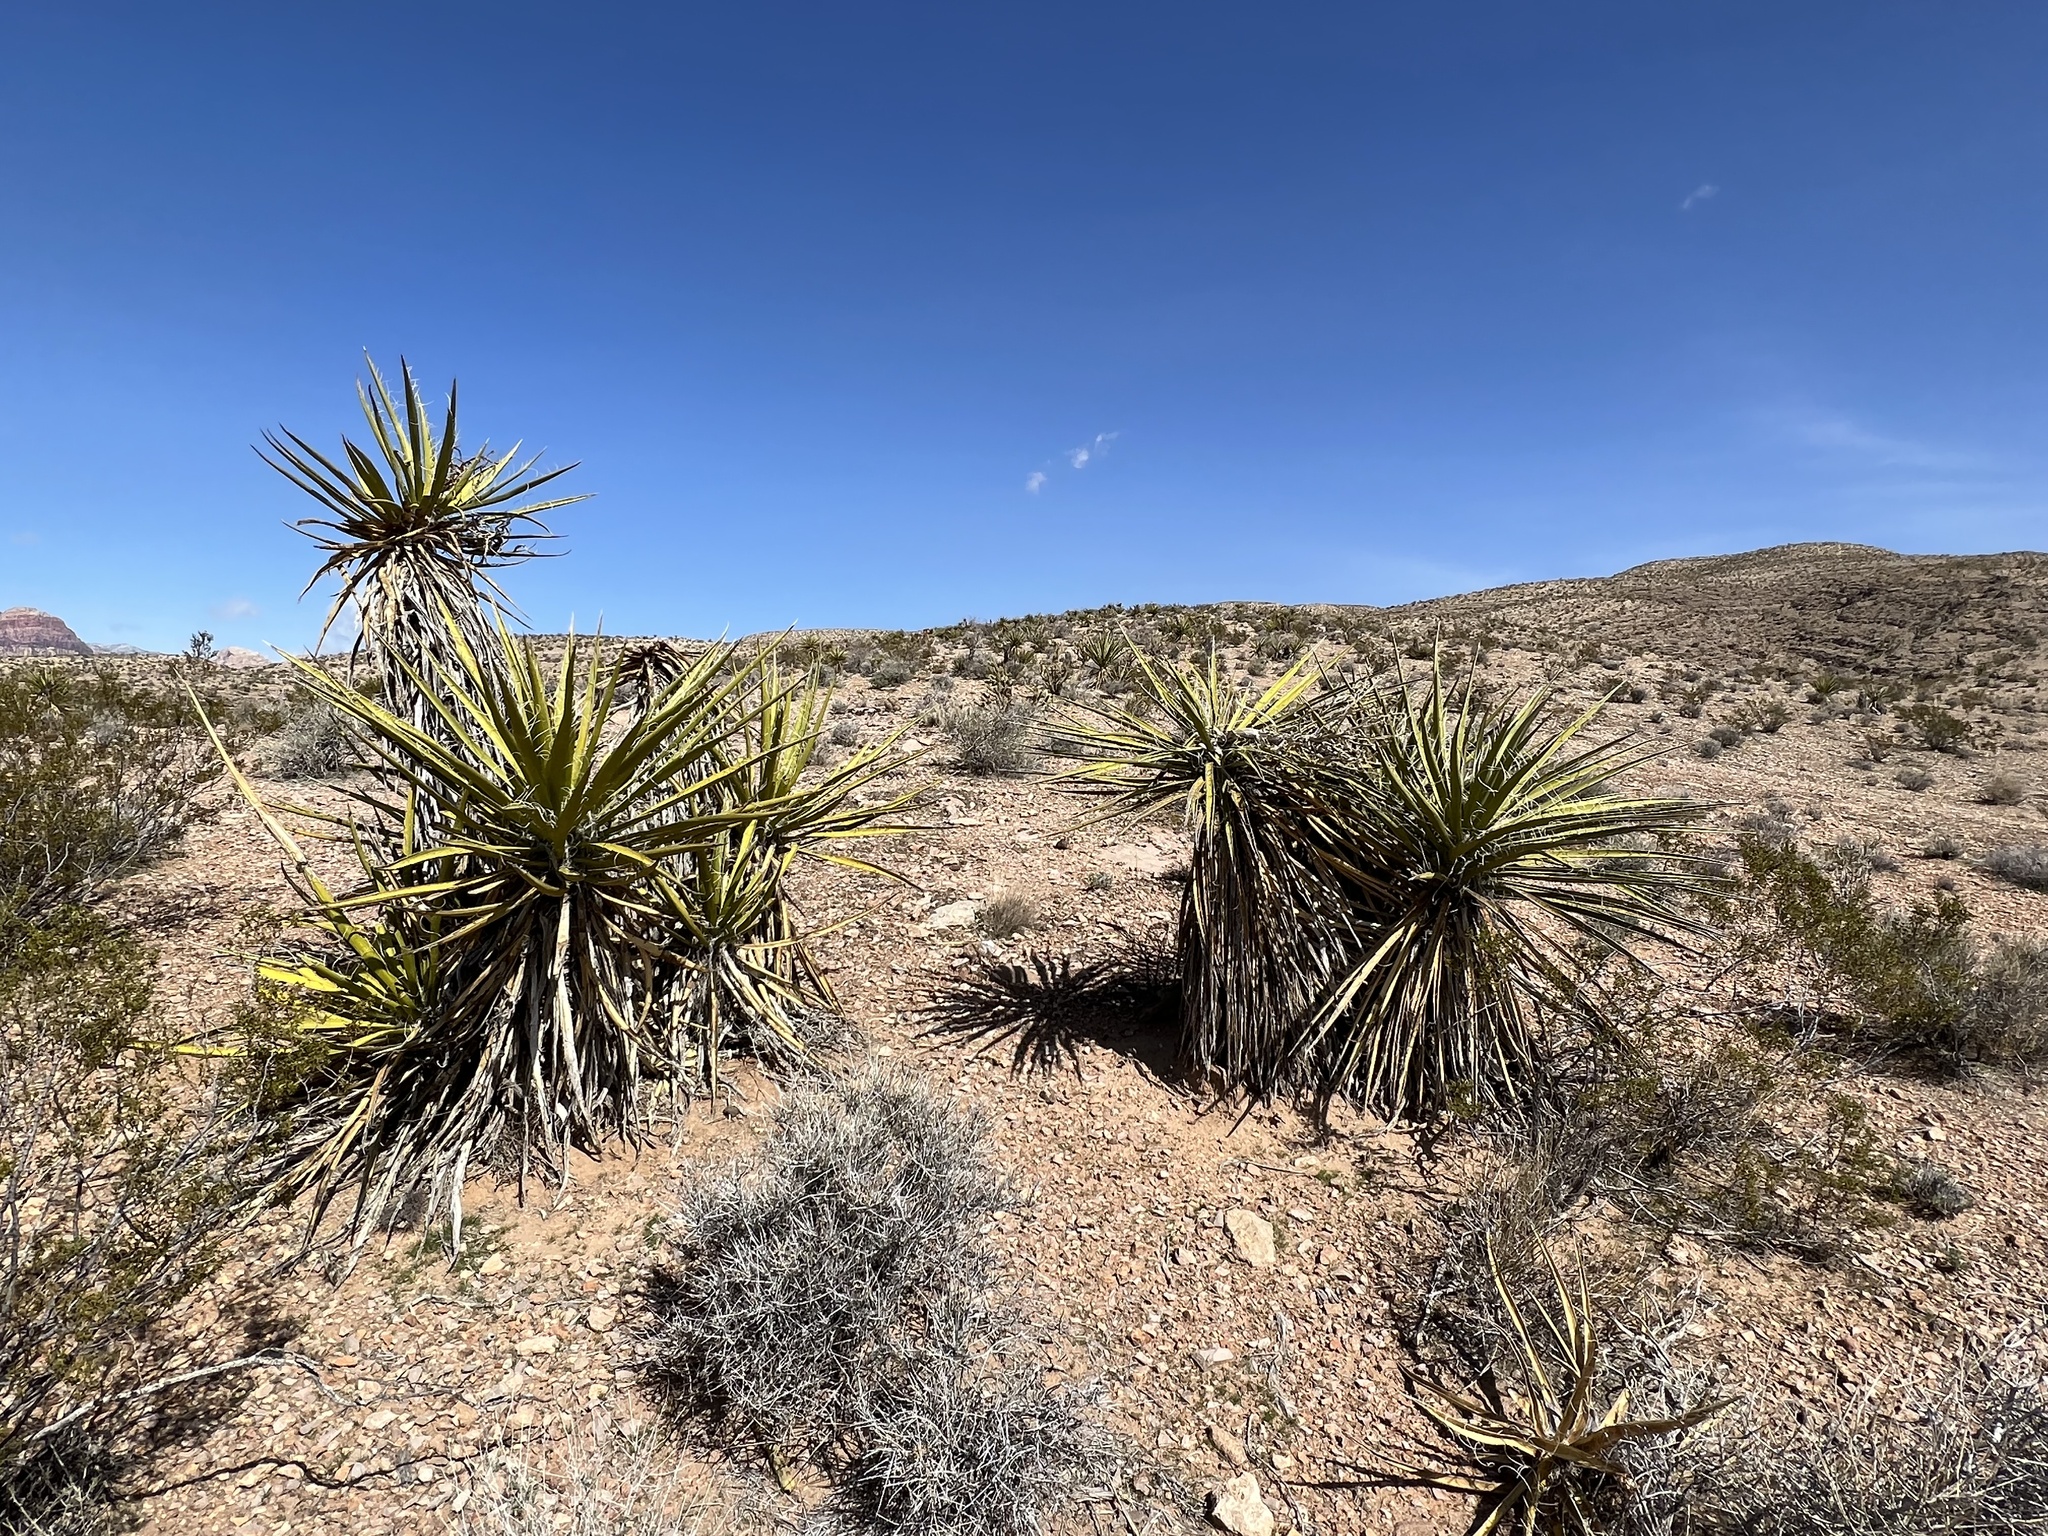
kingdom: Plantae
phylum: Tracheophyta
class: Liliopsida
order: Asparagales
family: Asparagaceae
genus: Yucca
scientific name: Yucca schidigera
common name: Mojave yucca
